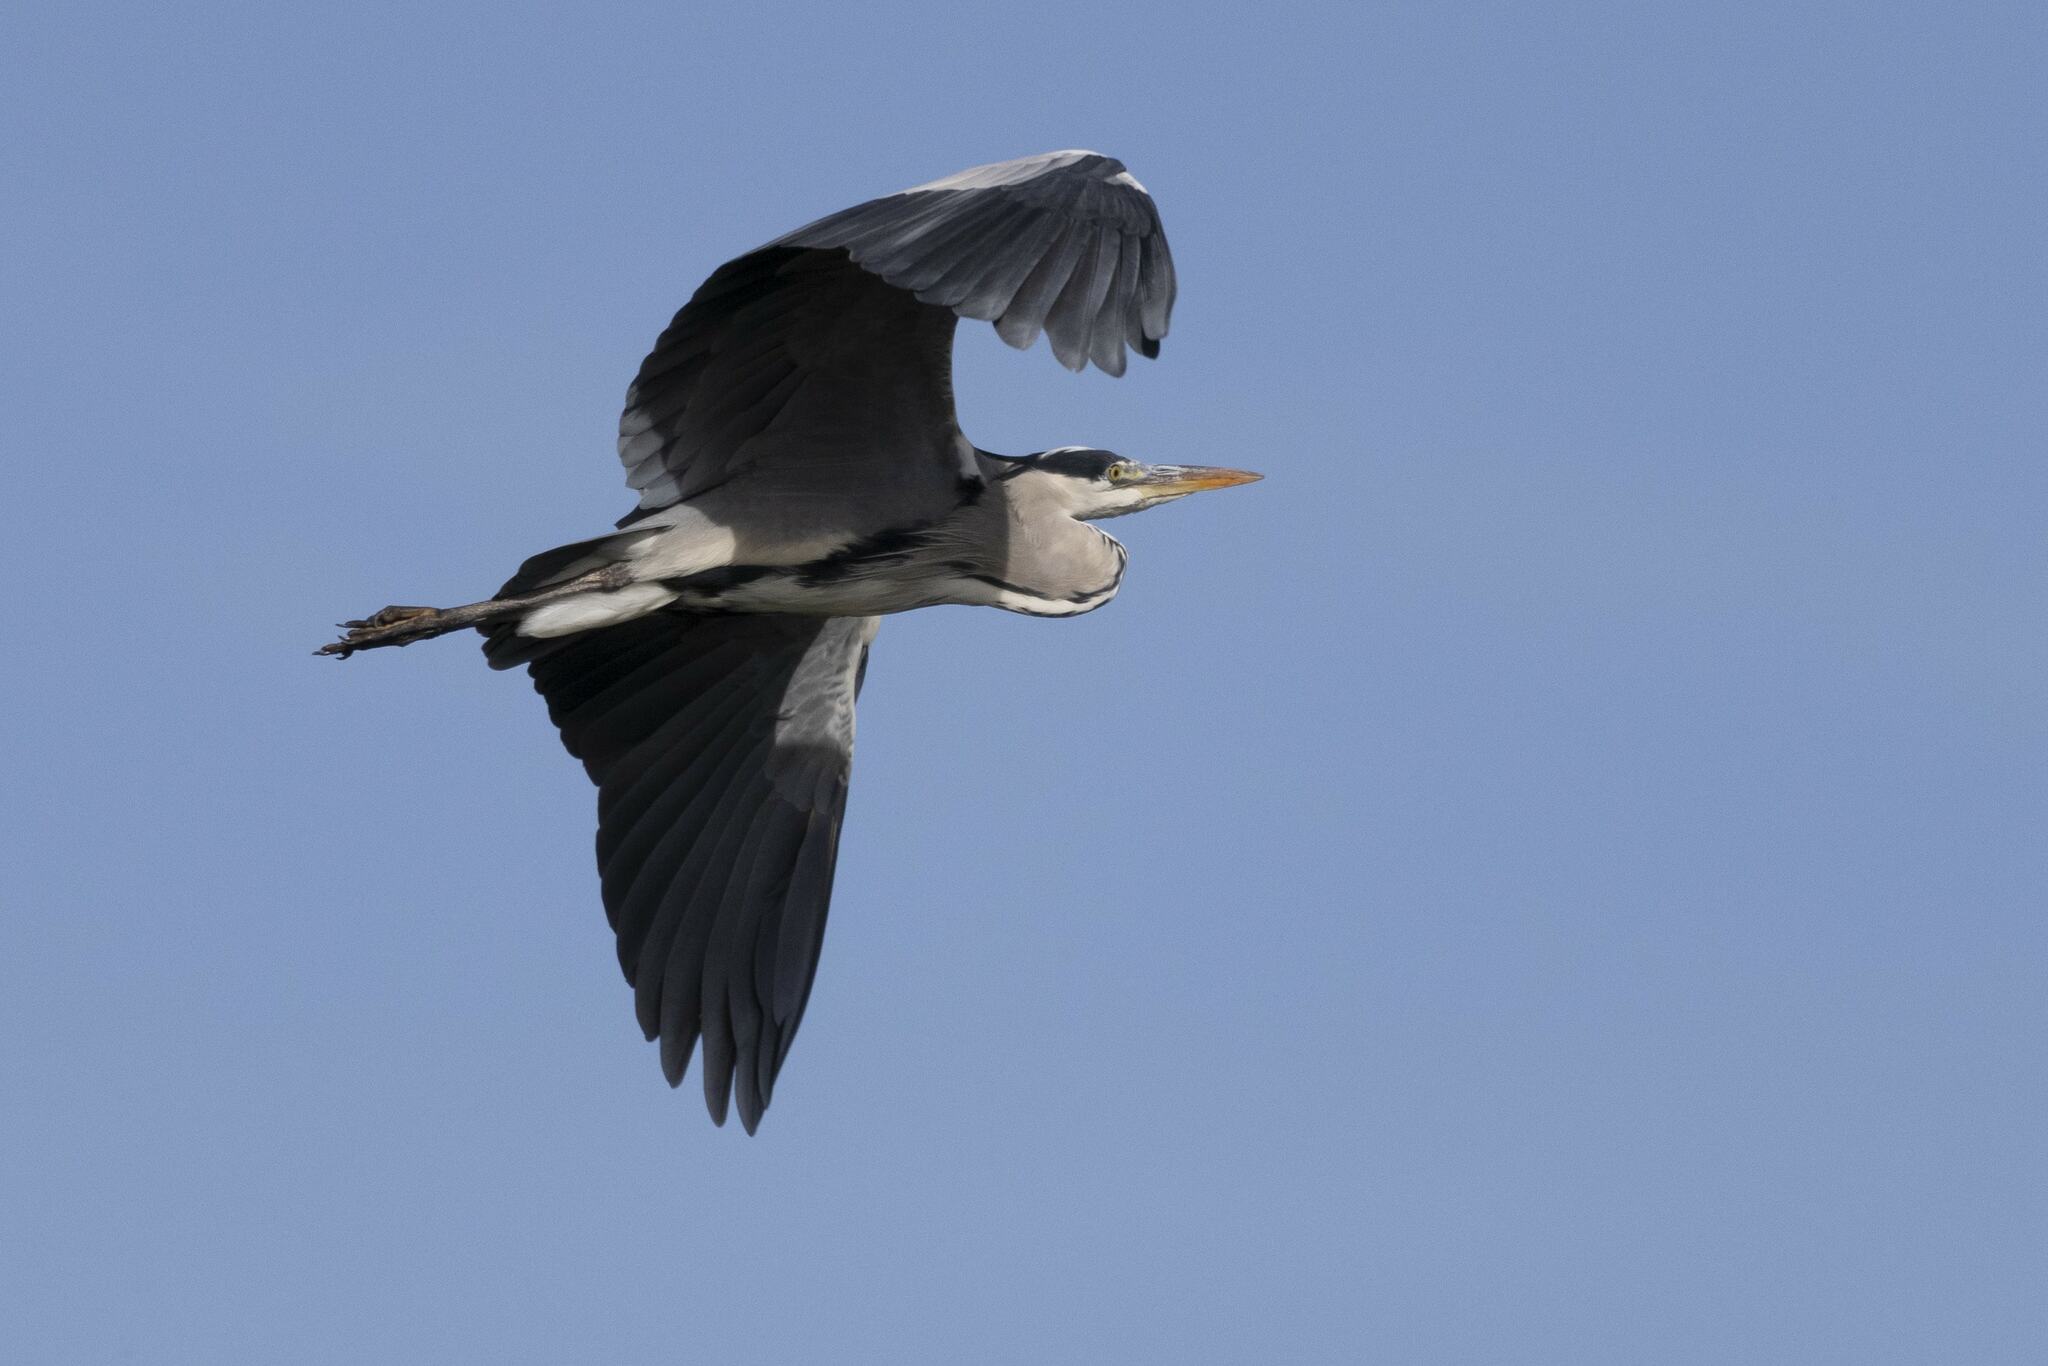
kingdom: Animalia
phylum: Chordata
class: Aves
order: Pelecaniformes
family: Ardeidae
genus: Ardea
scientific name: Ardea cinerea
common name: Grey heron
